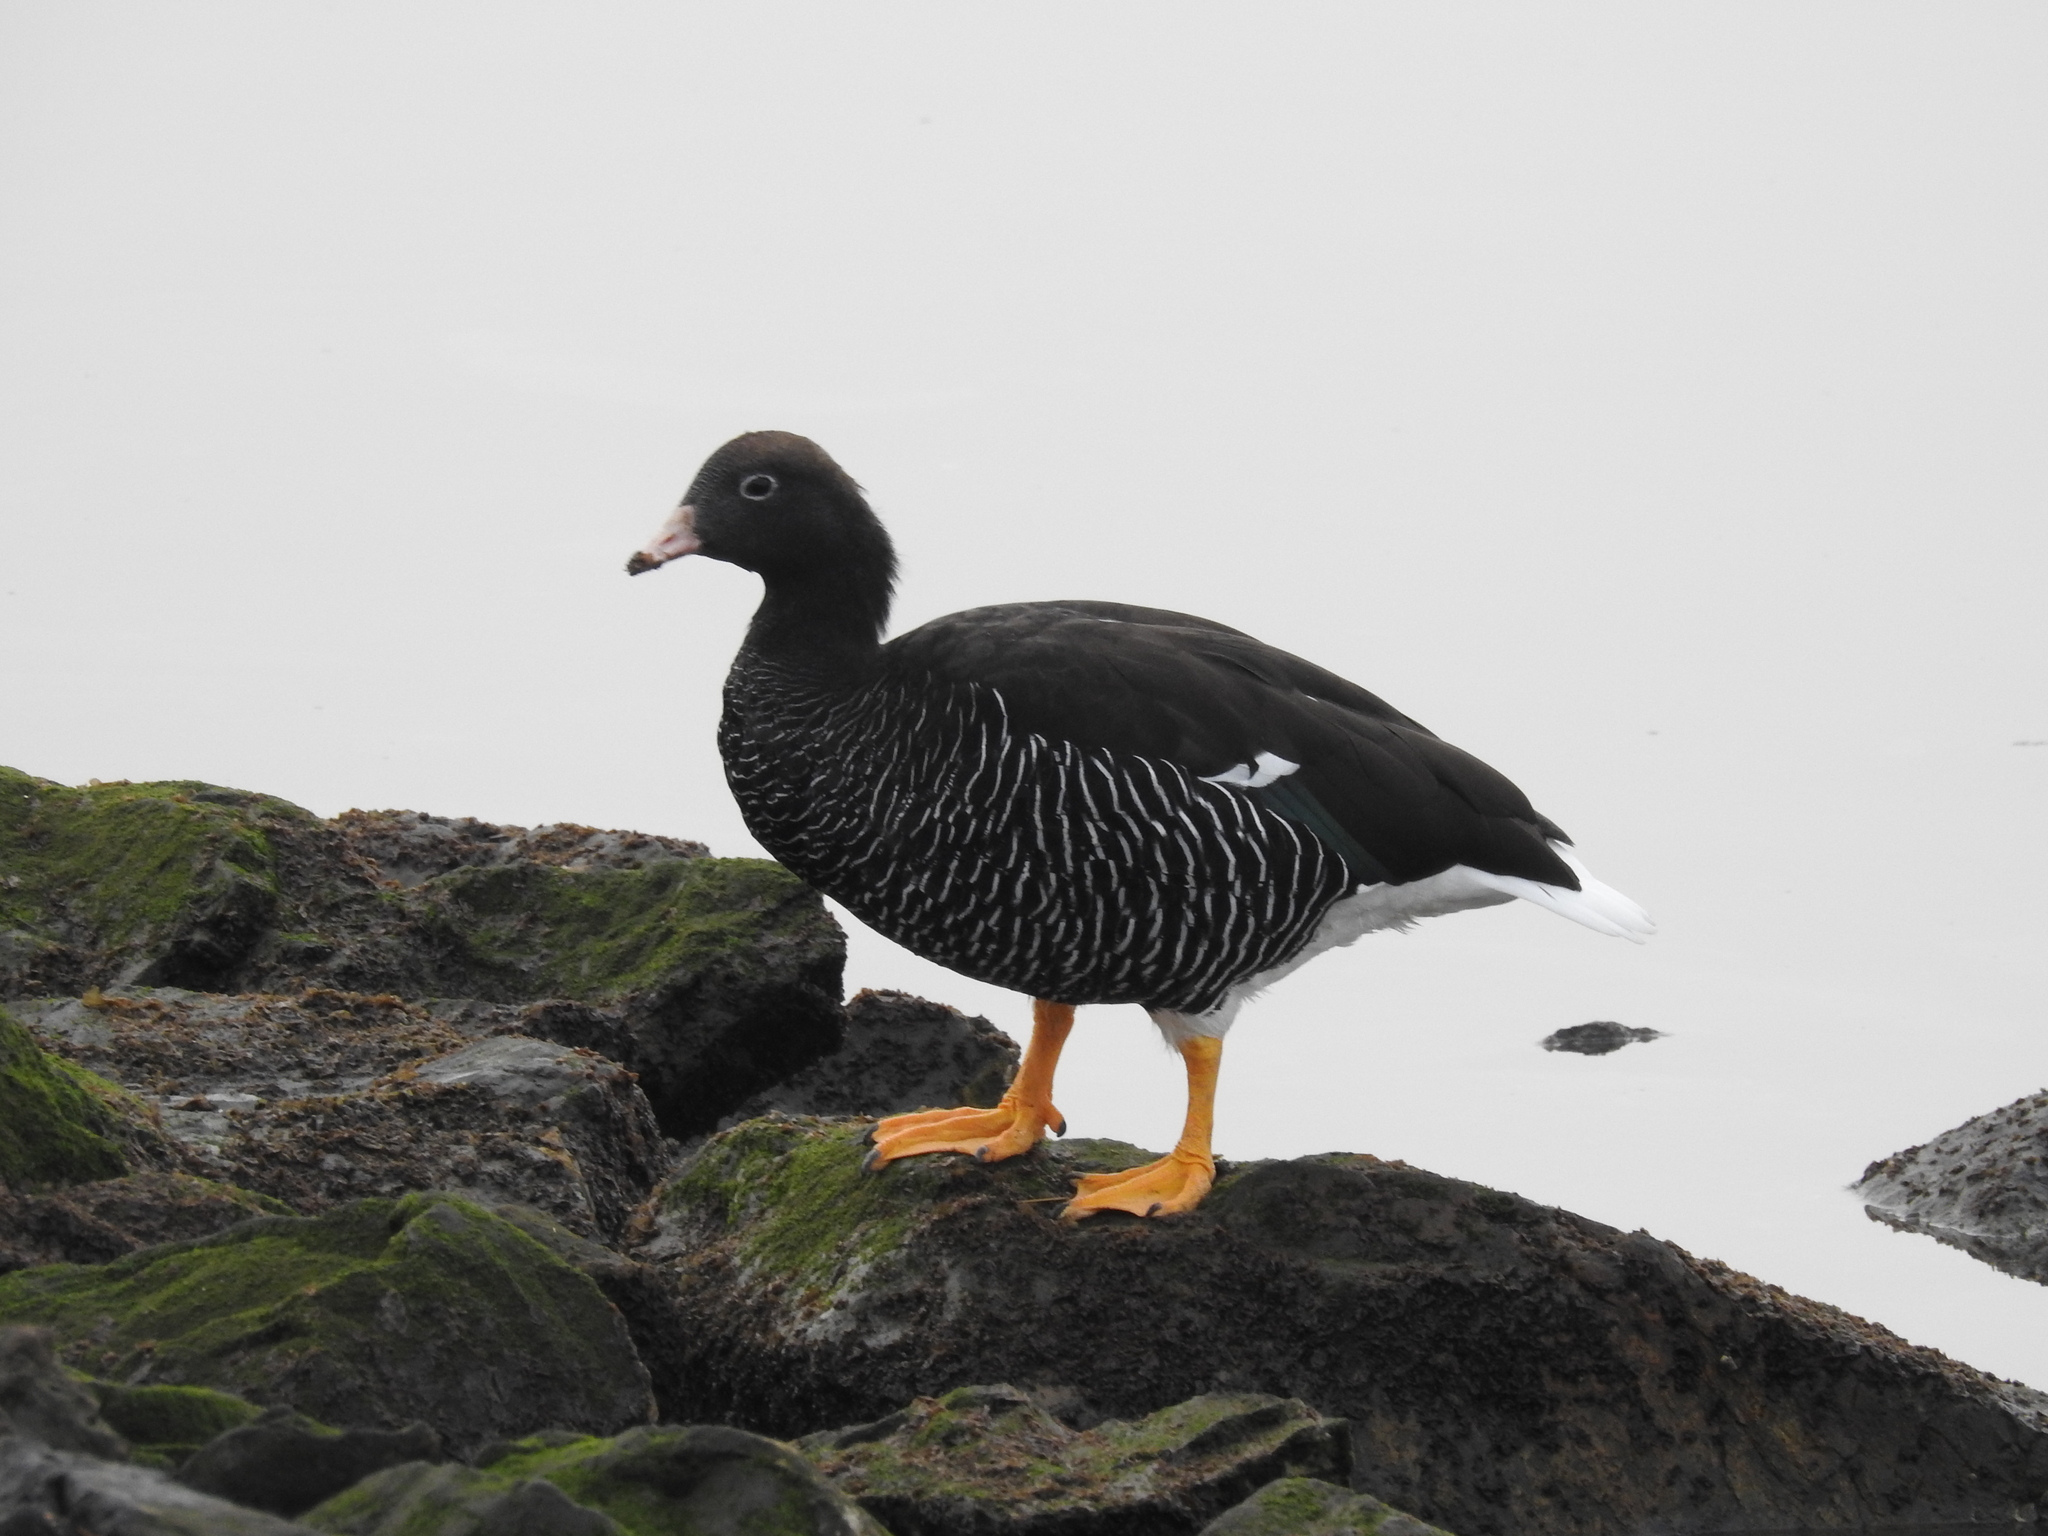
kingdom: Animalia
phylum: Chordata
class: Aves
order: Anseriformes
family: Anatidae
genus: Chloephaga
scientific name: Chloephaga hybrida
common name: Kelp goose
